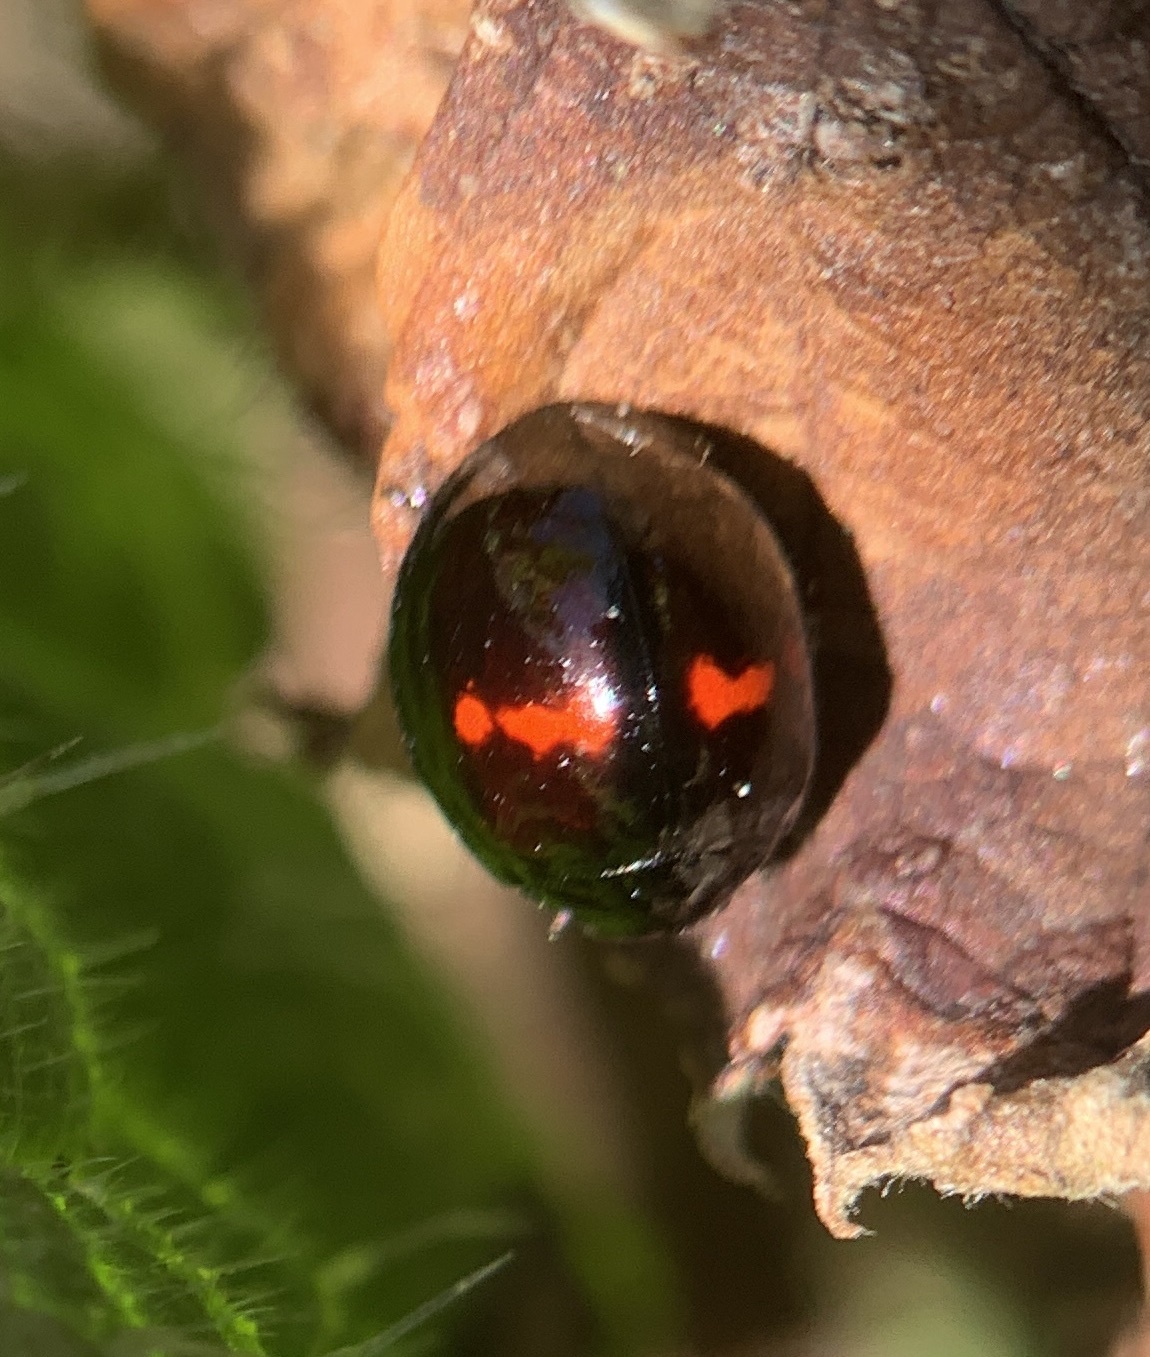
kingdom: Animalia
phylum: Arthropoda
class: Insecta
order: Coleoptera
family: Coccinellidae
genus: Chilocorus
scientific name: Chilocorus bipustulatus
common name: Heather ladybird
